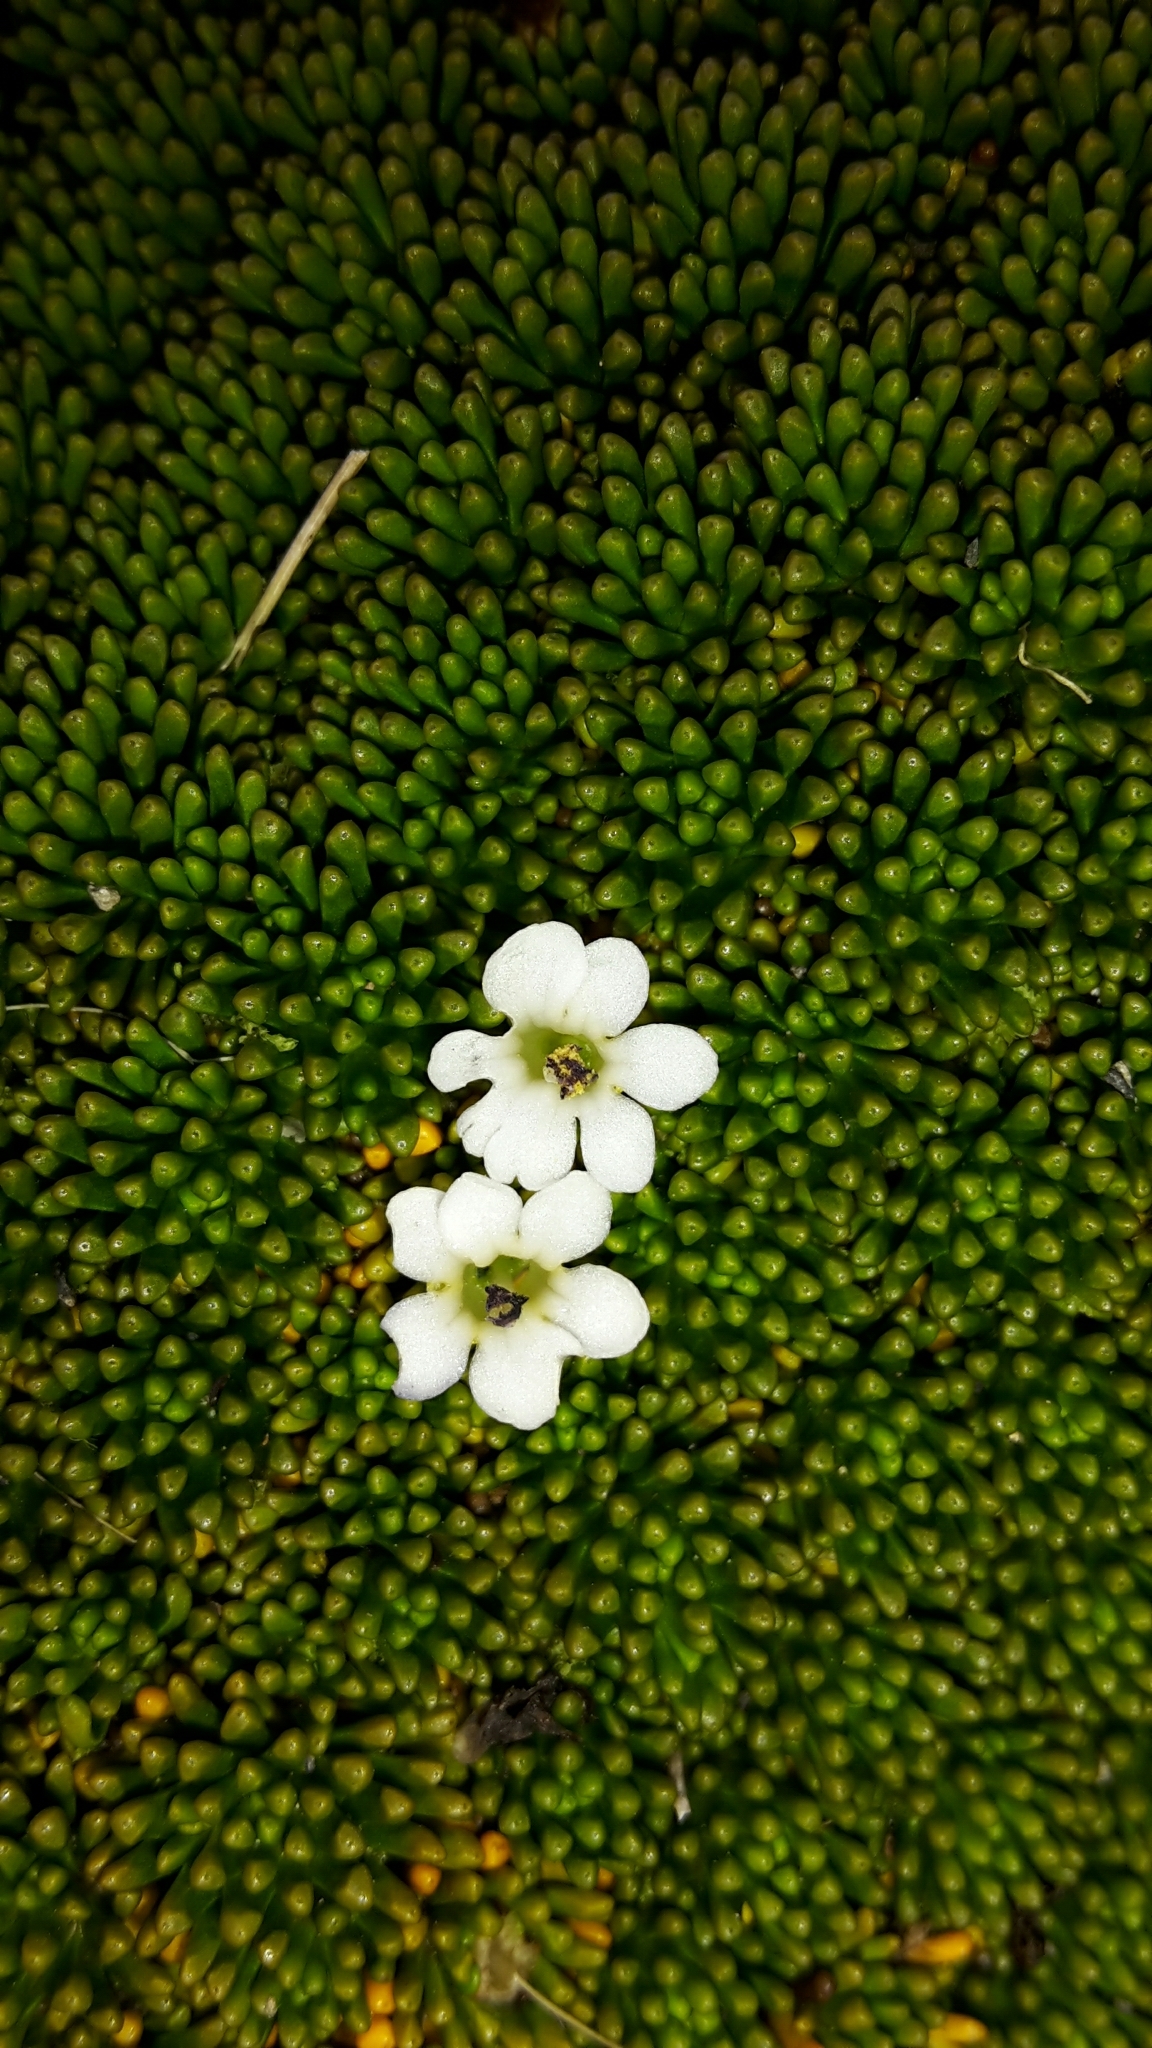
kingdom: Plantae
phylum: Tracheophyta
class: Magnoliopsida
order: Asterales
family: Stylidiaceae
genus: Phyllachne
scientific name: Phyllachne colensoi
